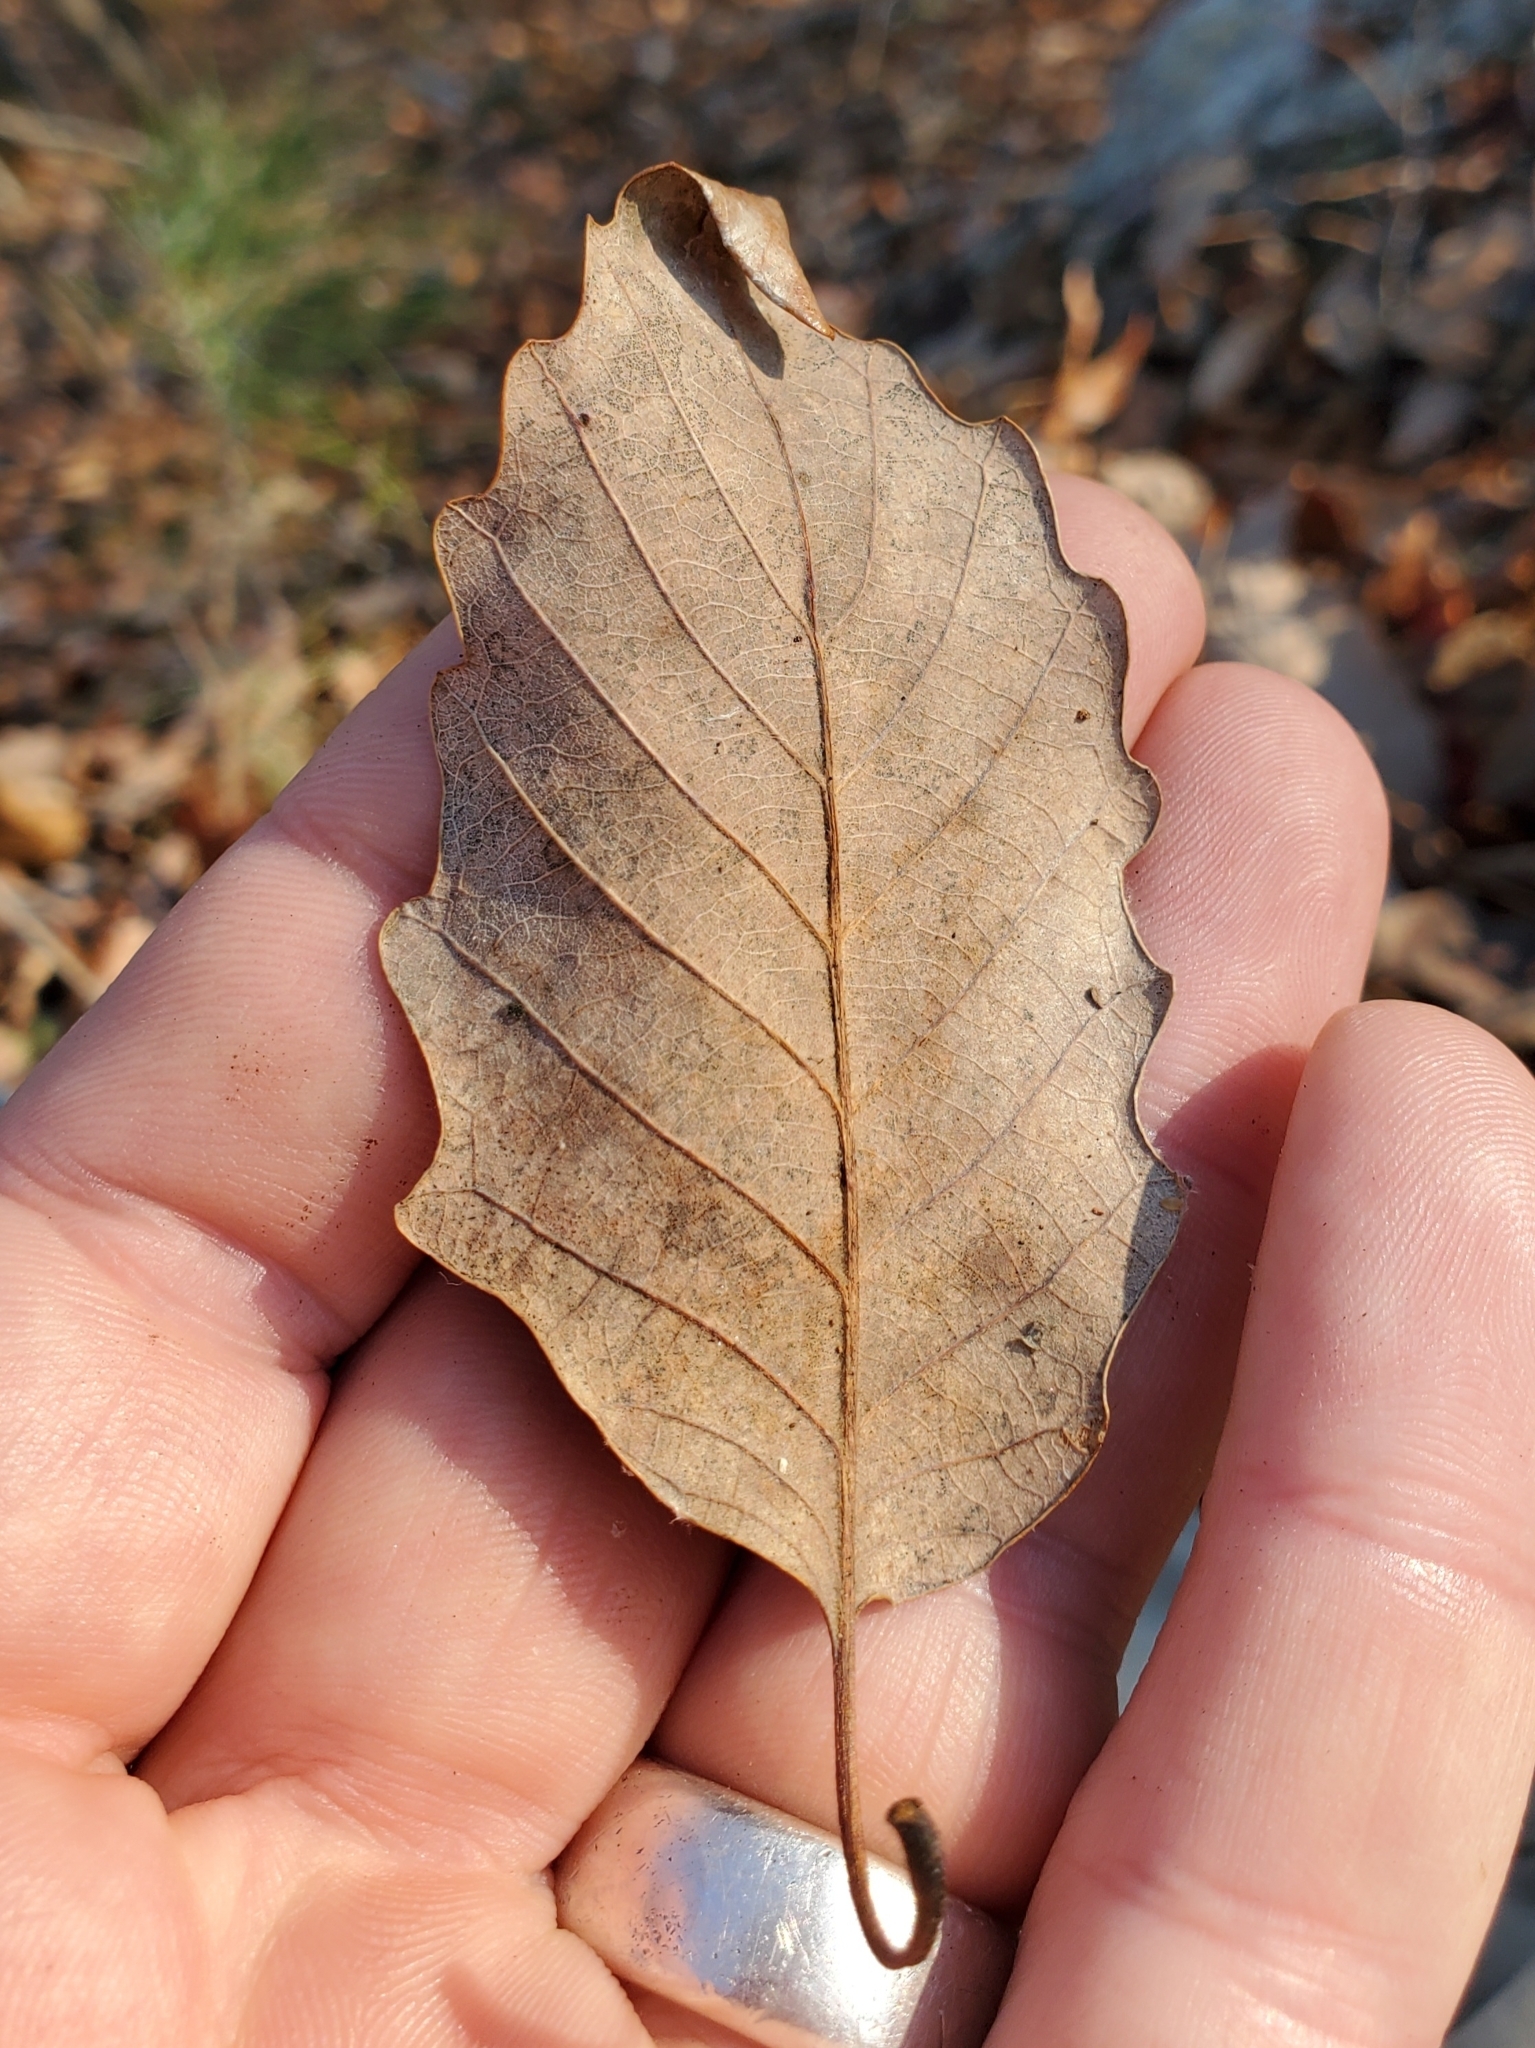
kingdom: Animalia
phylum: Arthropoda
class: Insecta
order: Hymenoptera
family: Cynipidae
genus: Acraspis
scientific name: Acraspis quercushirta
